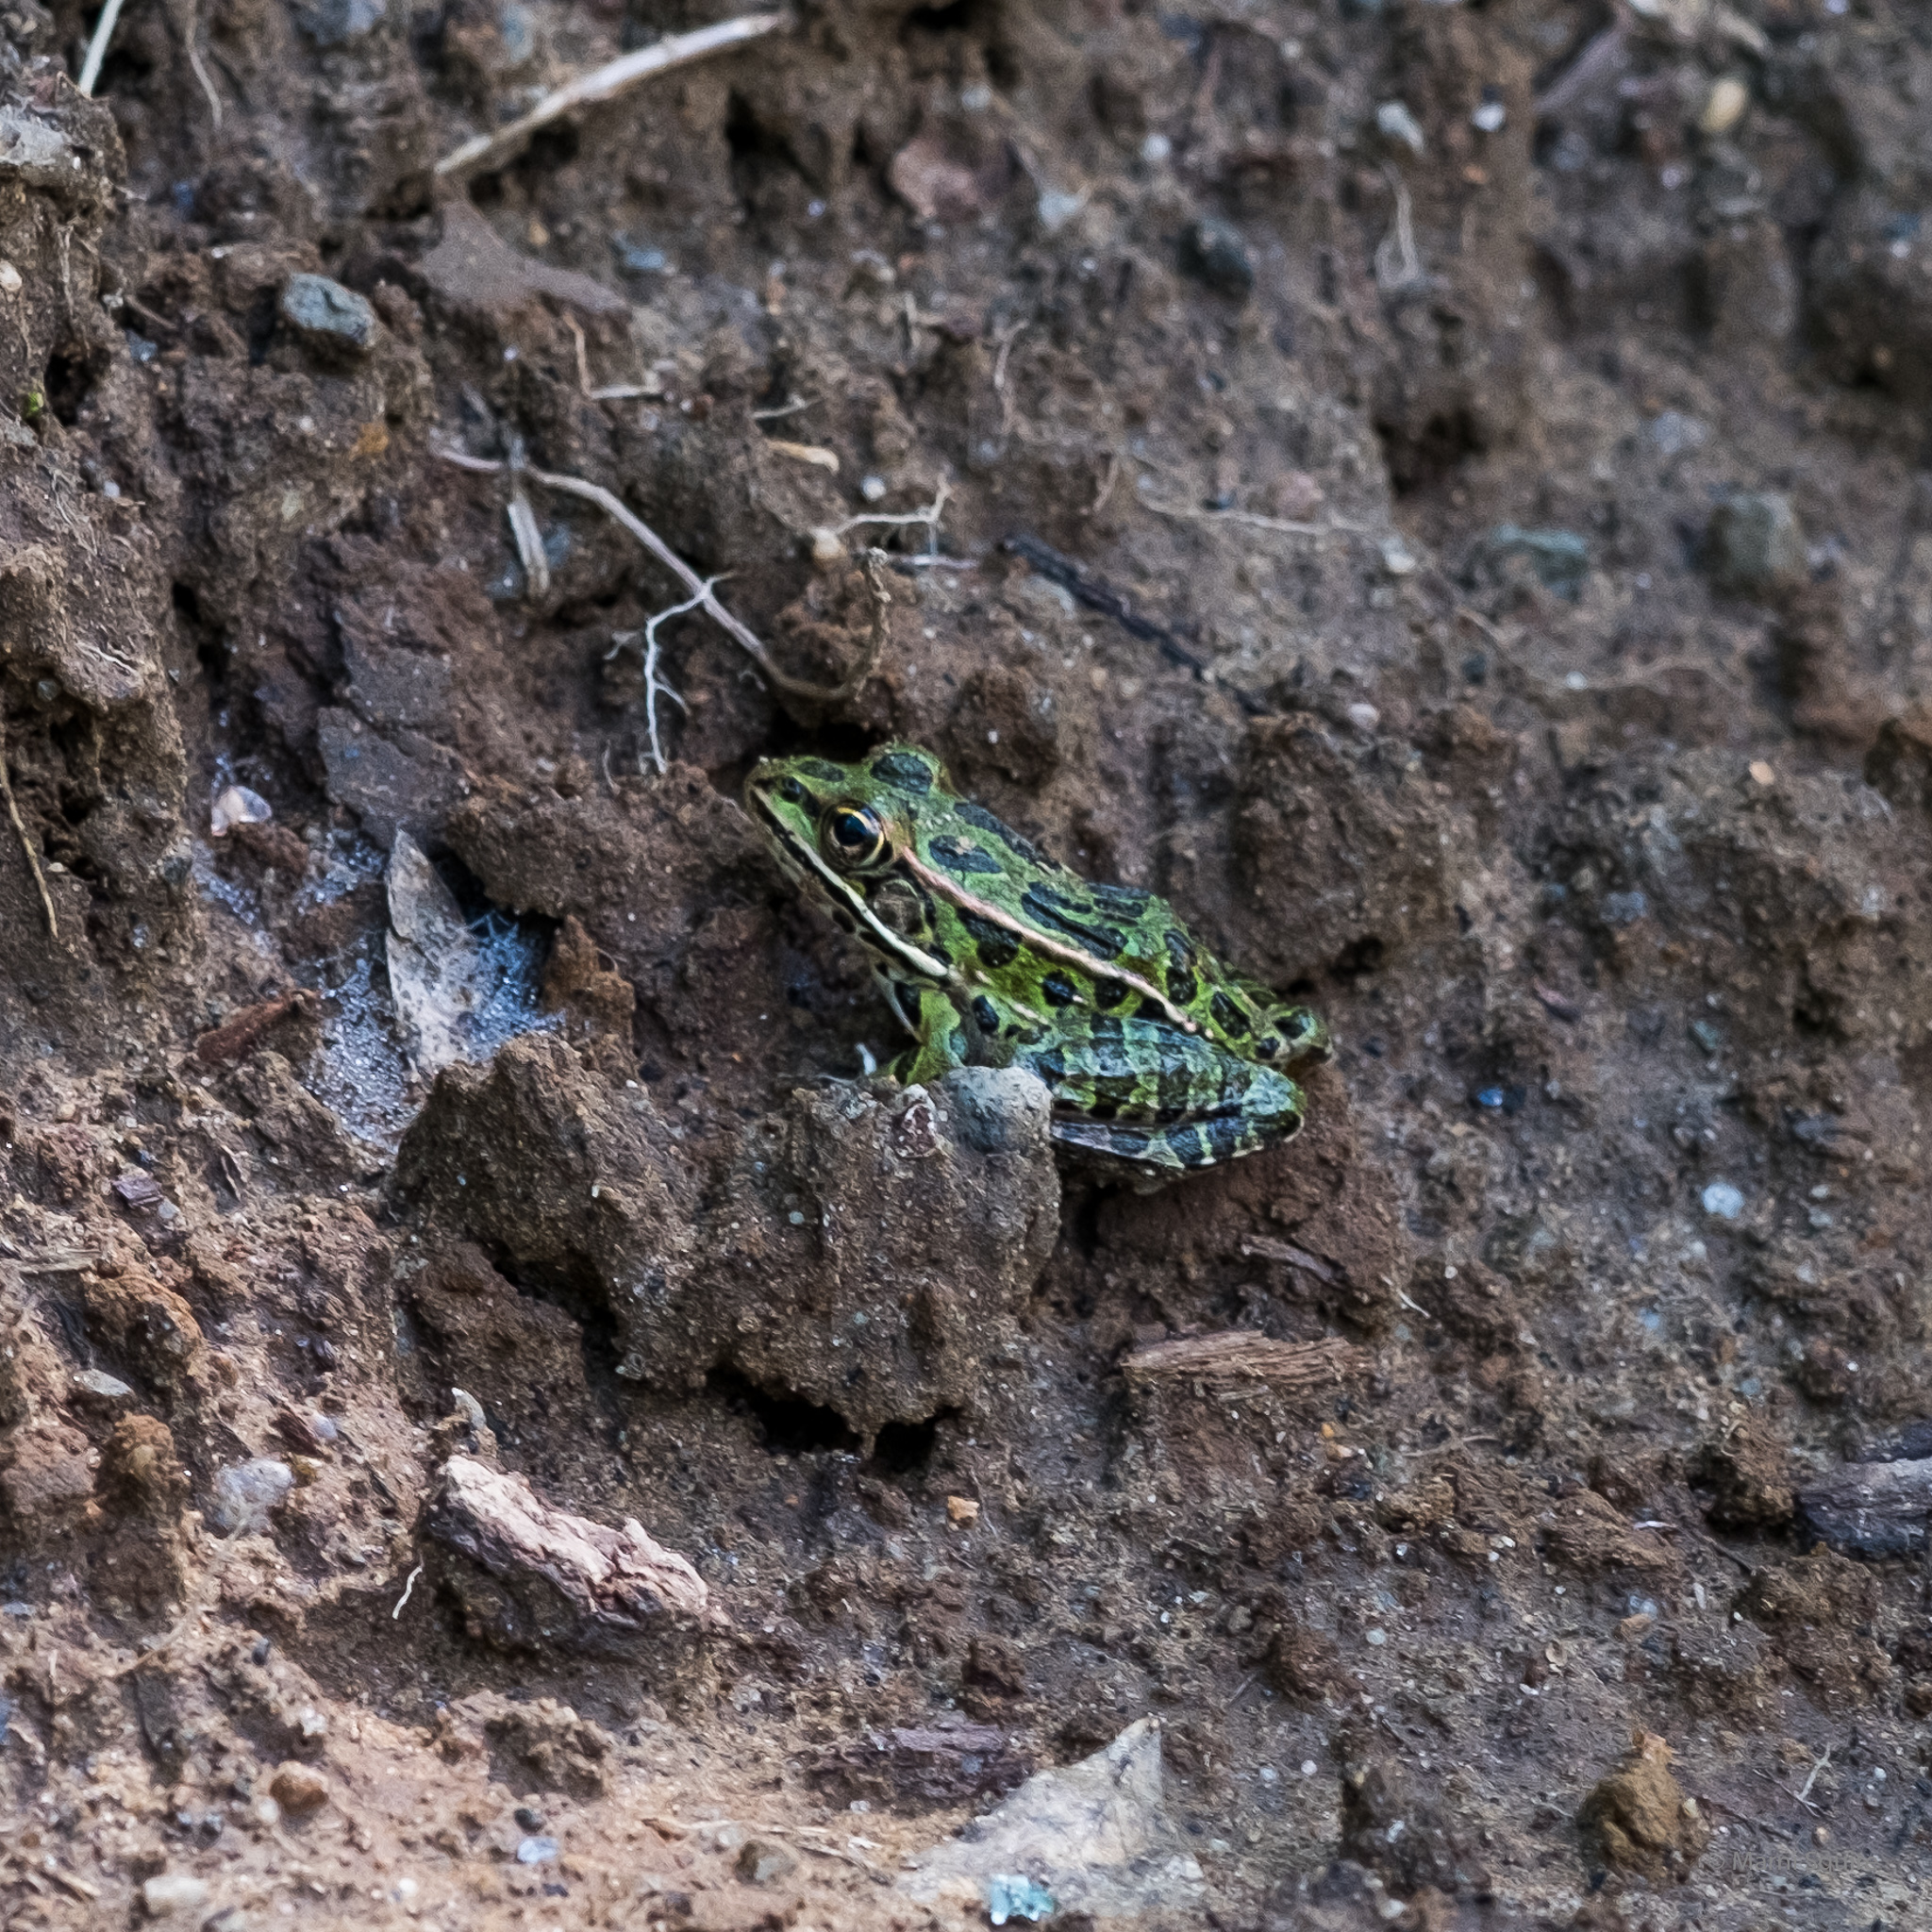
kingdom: Animalia
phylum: Chordata
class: Amphibia
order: Anura
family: Ranidae
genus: Lithobates
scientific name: Lithobates pipiens
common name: Northern leopard frog
